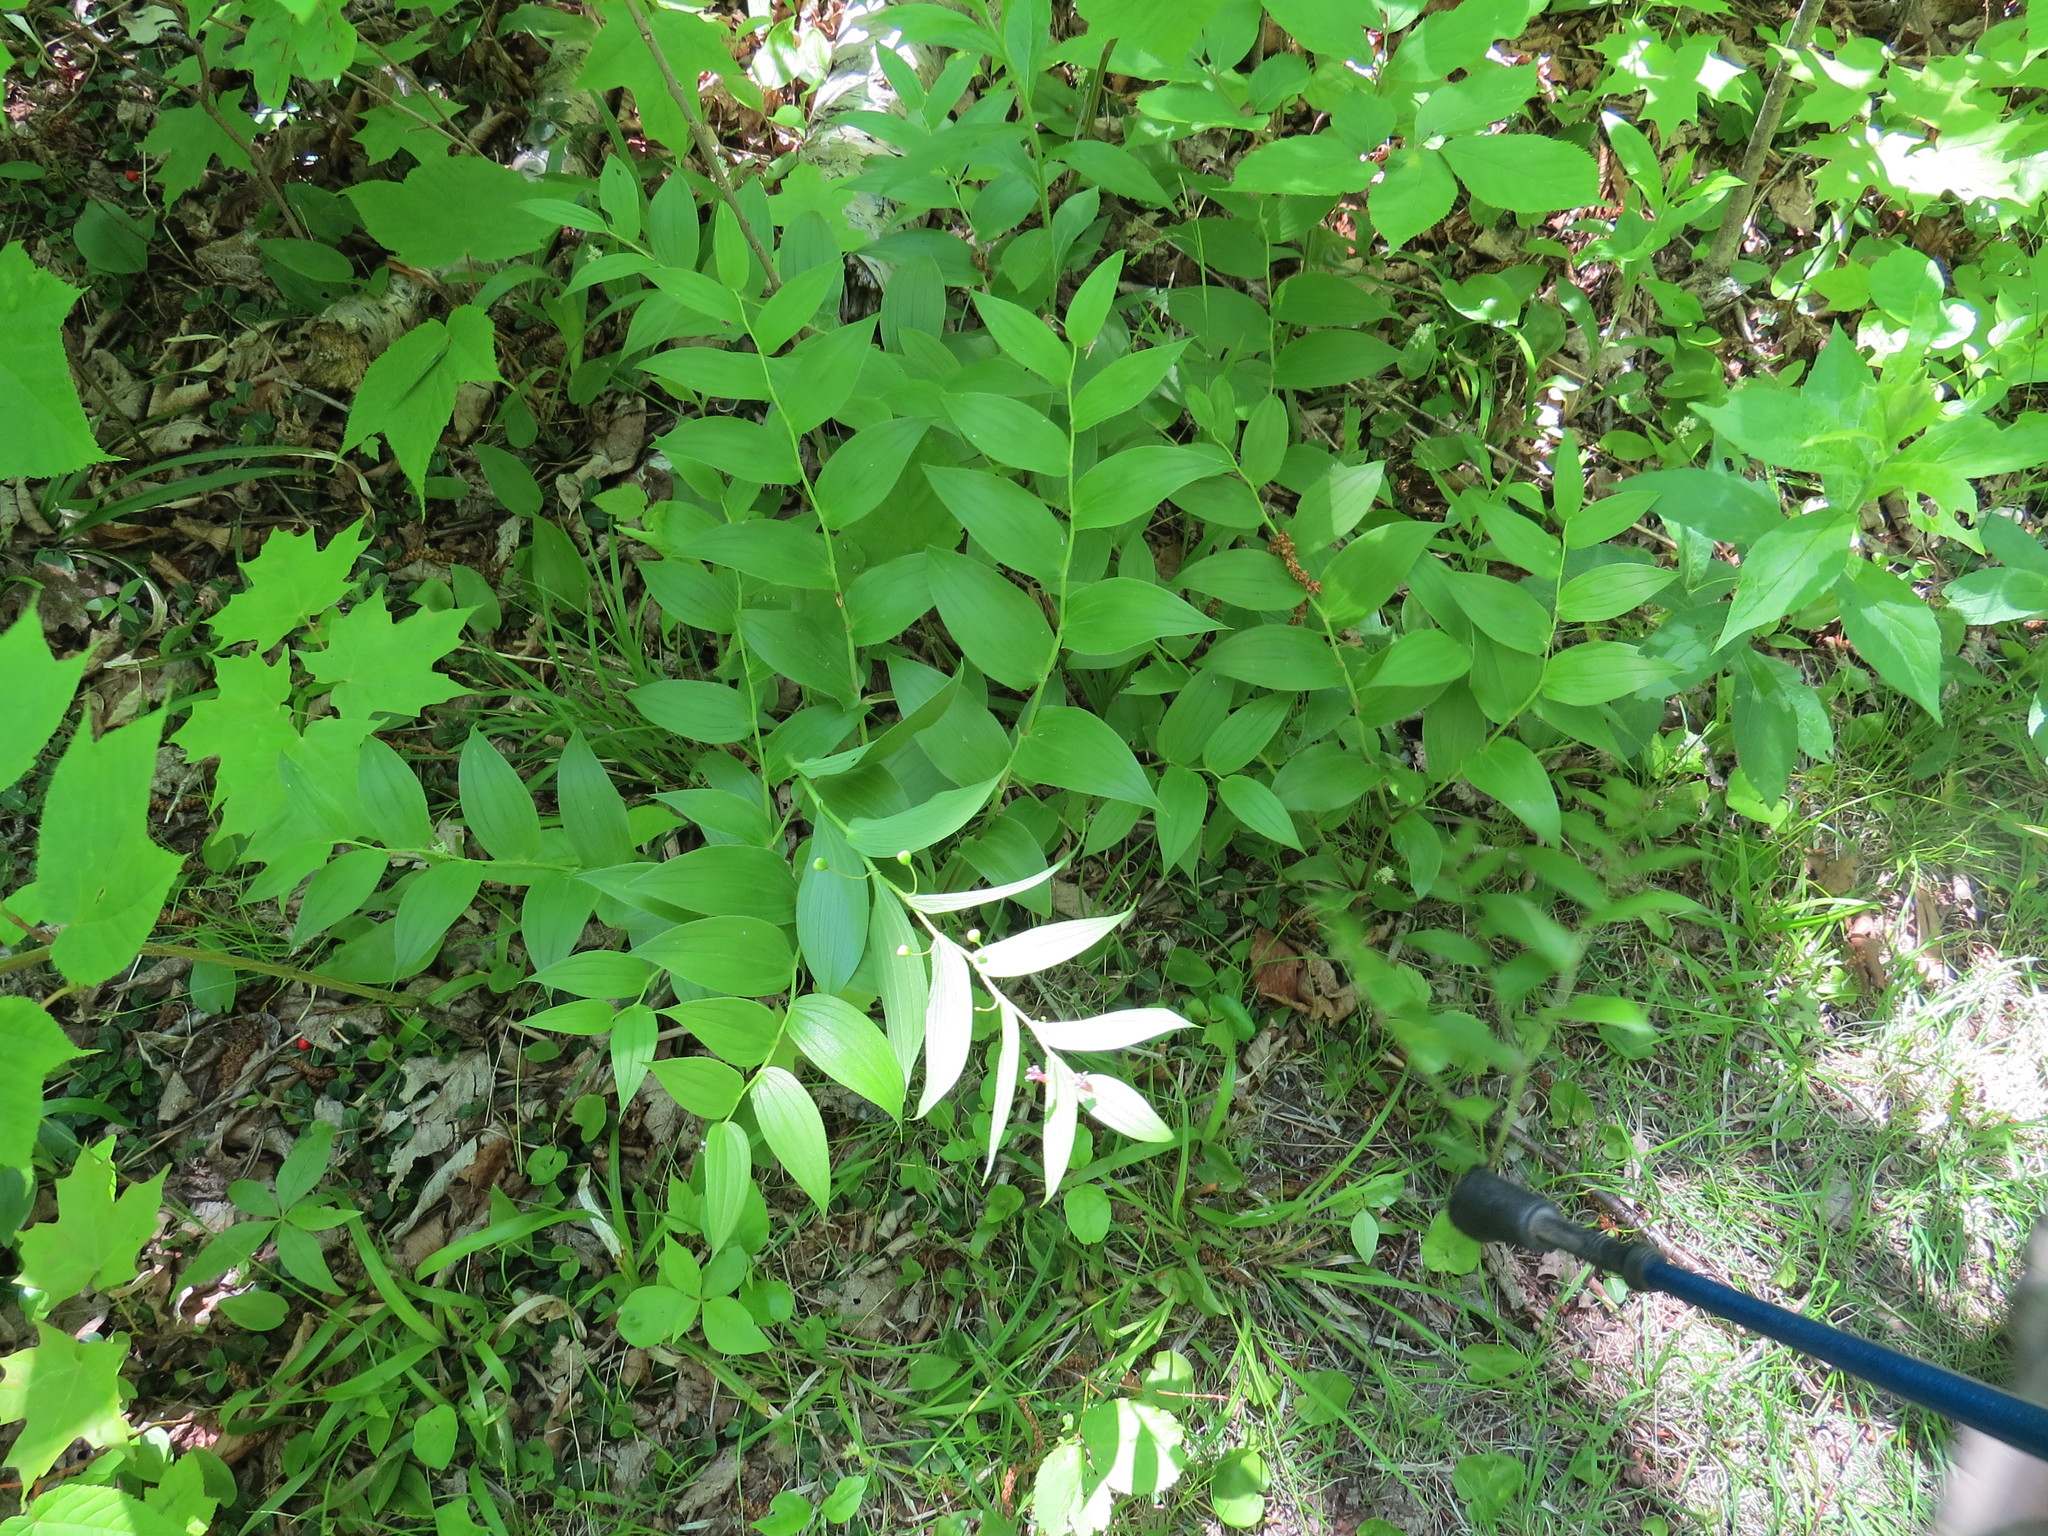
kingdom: Plantae
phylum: Tracheophyta
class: Liliopsida
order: Liliales
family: Liliaceae
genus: Streptopus
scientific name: Streptopus lanceolatus
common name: Rose mandarin
